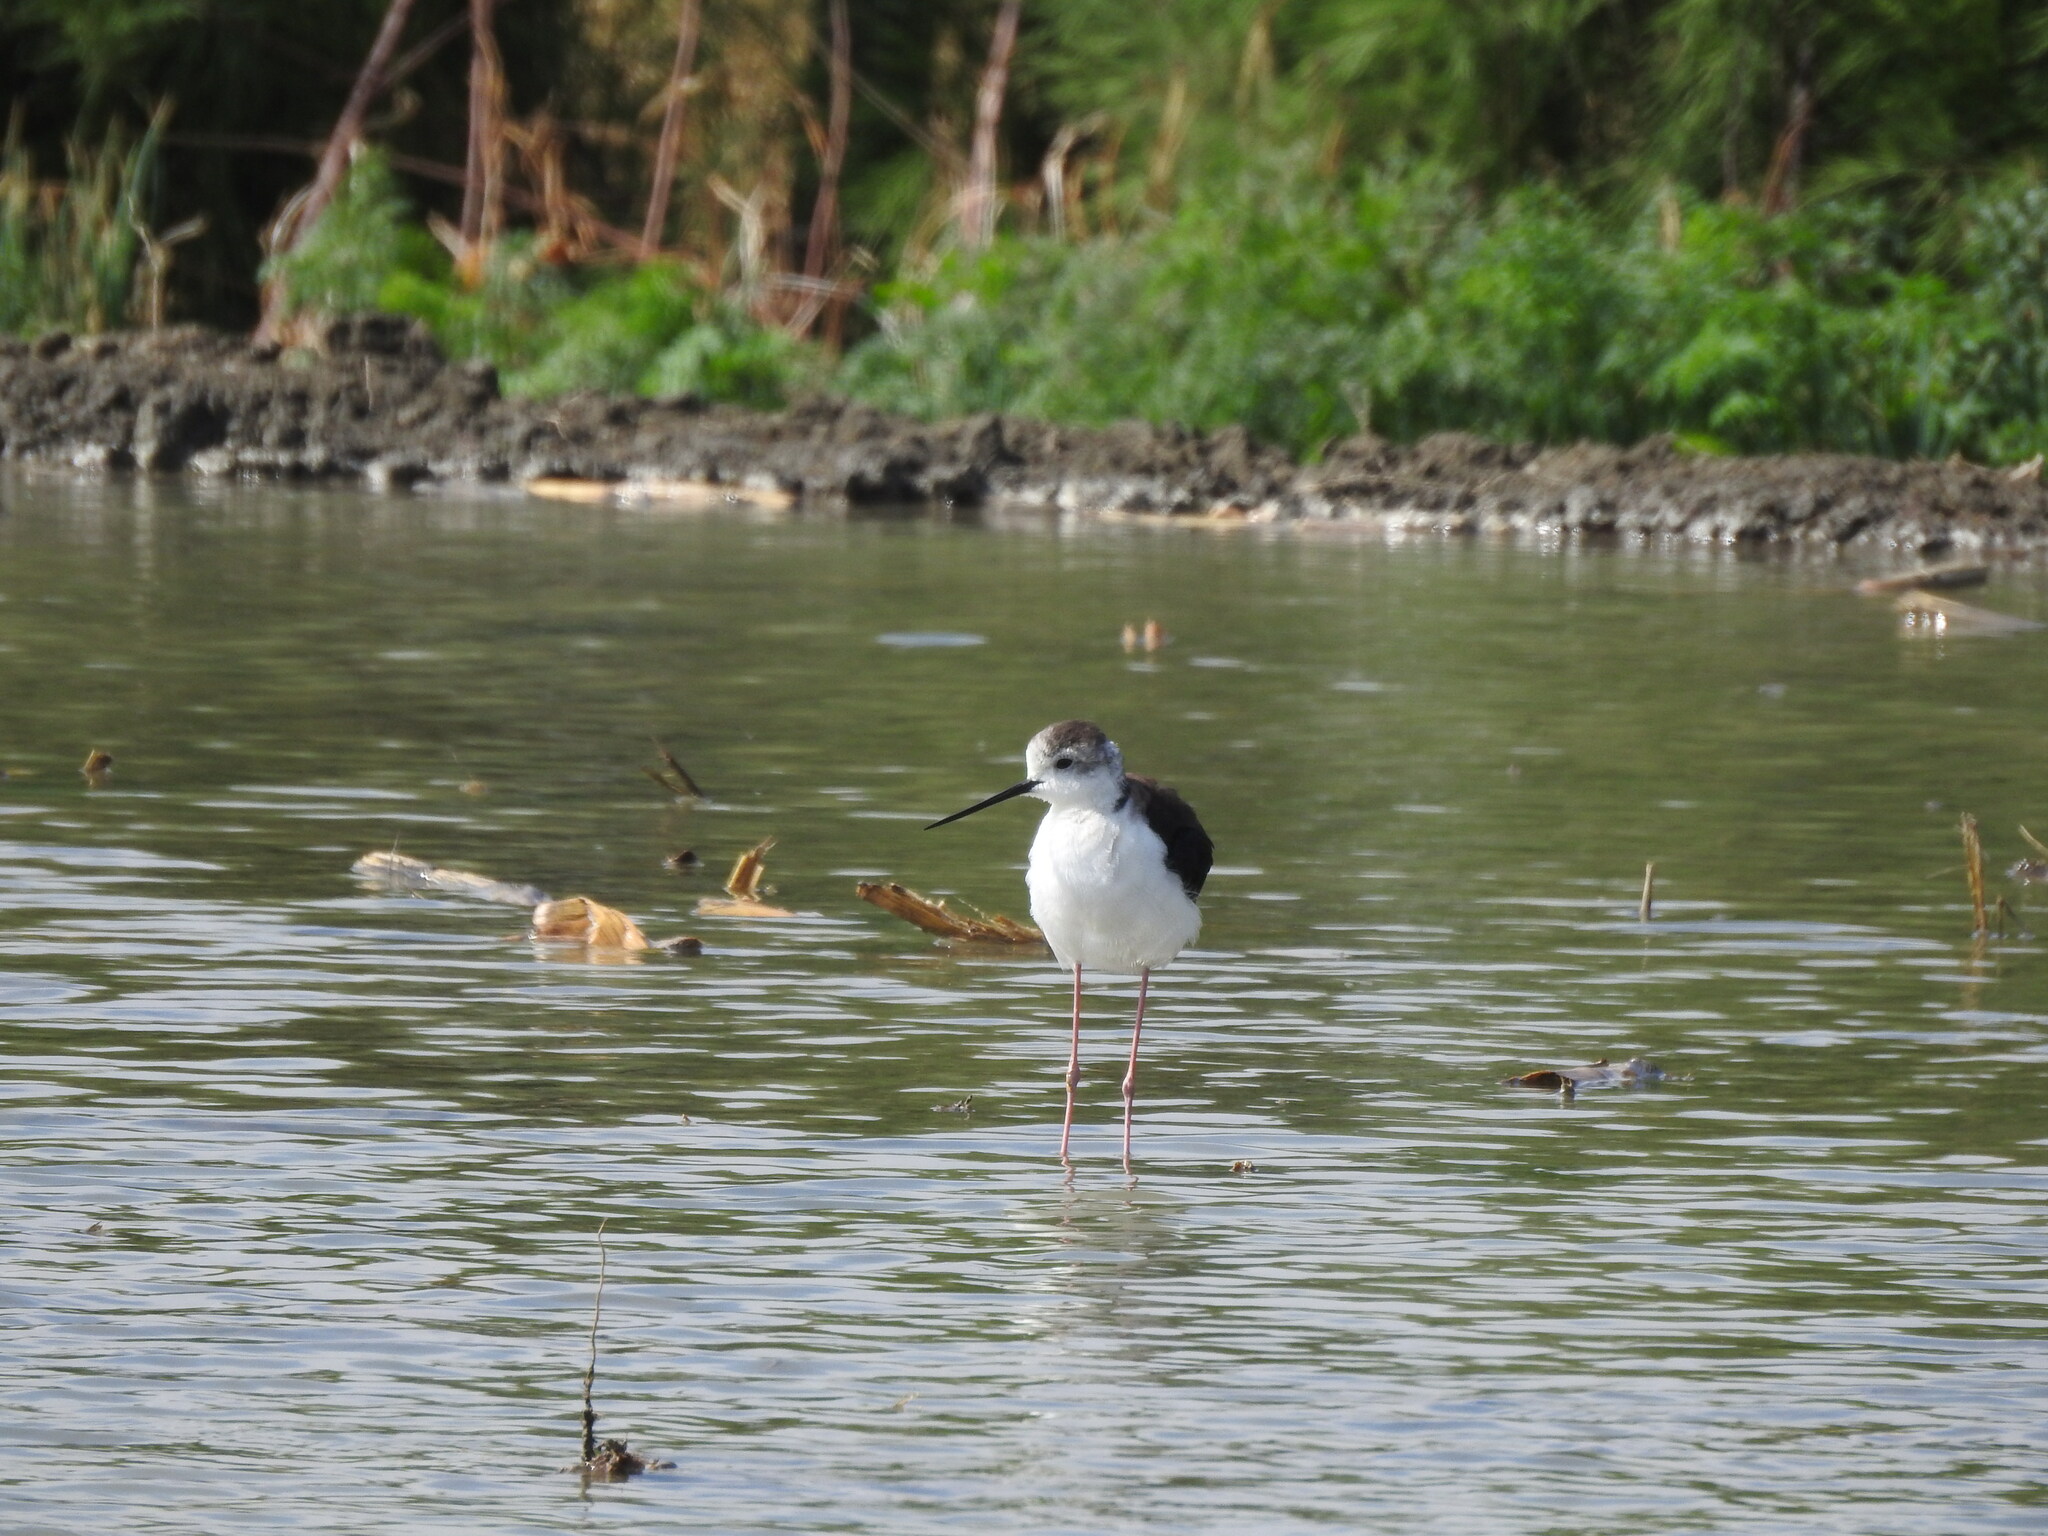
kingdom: Animalia
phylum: Chordata
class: Aves
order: Charadriiformes
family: Recurvirostridae
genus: Himantopus
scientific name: Himantopus himantopus
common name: Black-winged stilt
